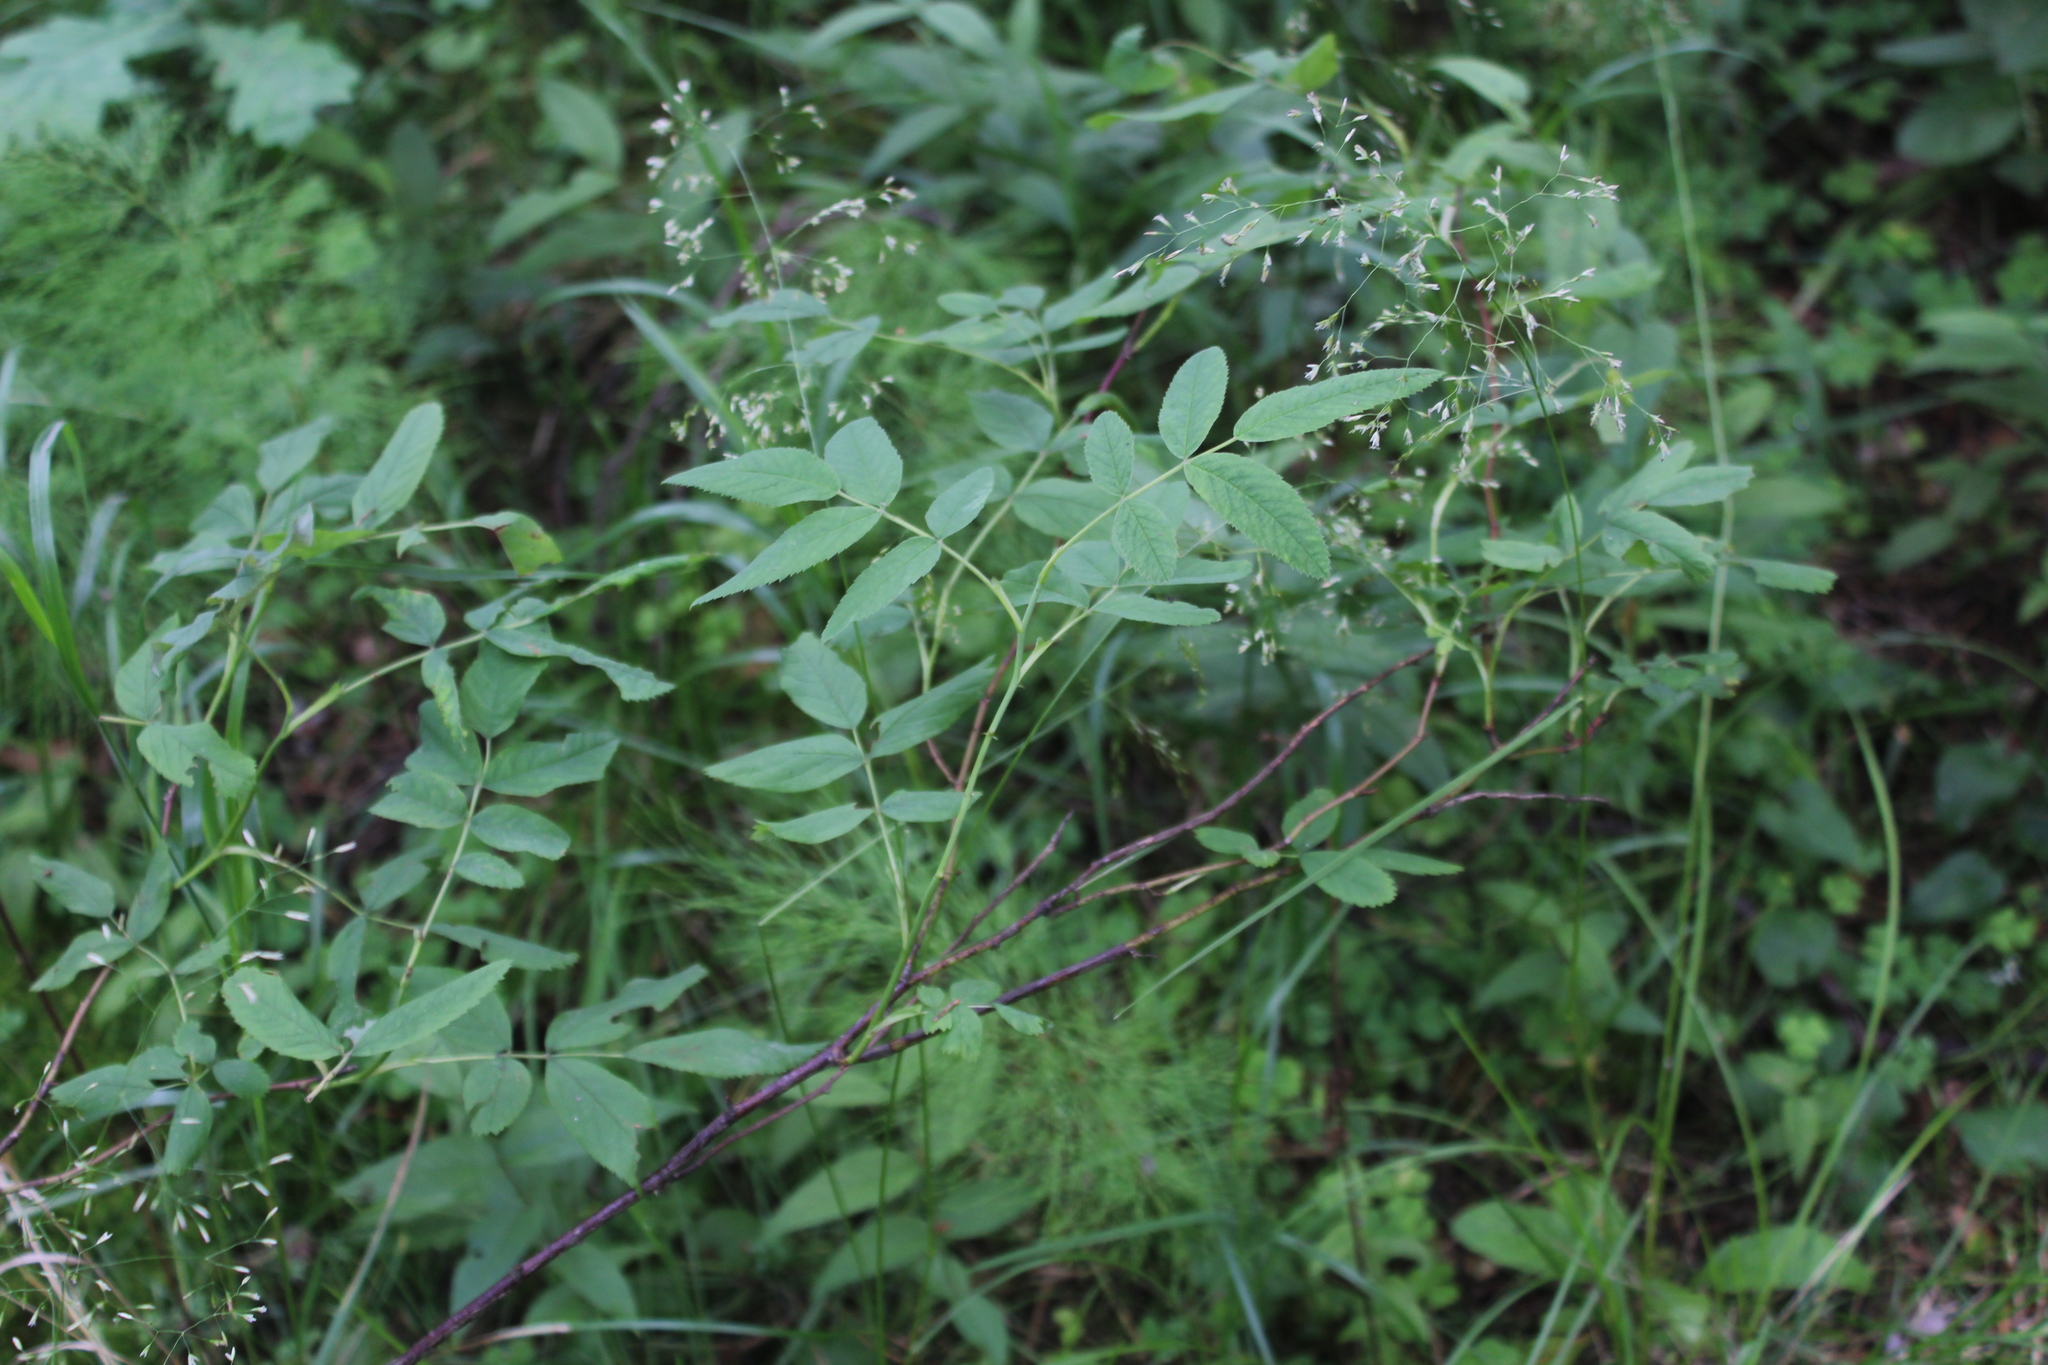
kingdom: Plantae
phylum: Tracheophyta
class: Magnoliopsida
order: Rosales
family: Rosaceae
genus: Rosa
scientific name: Rosa majalis
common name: Cinnamon rose
